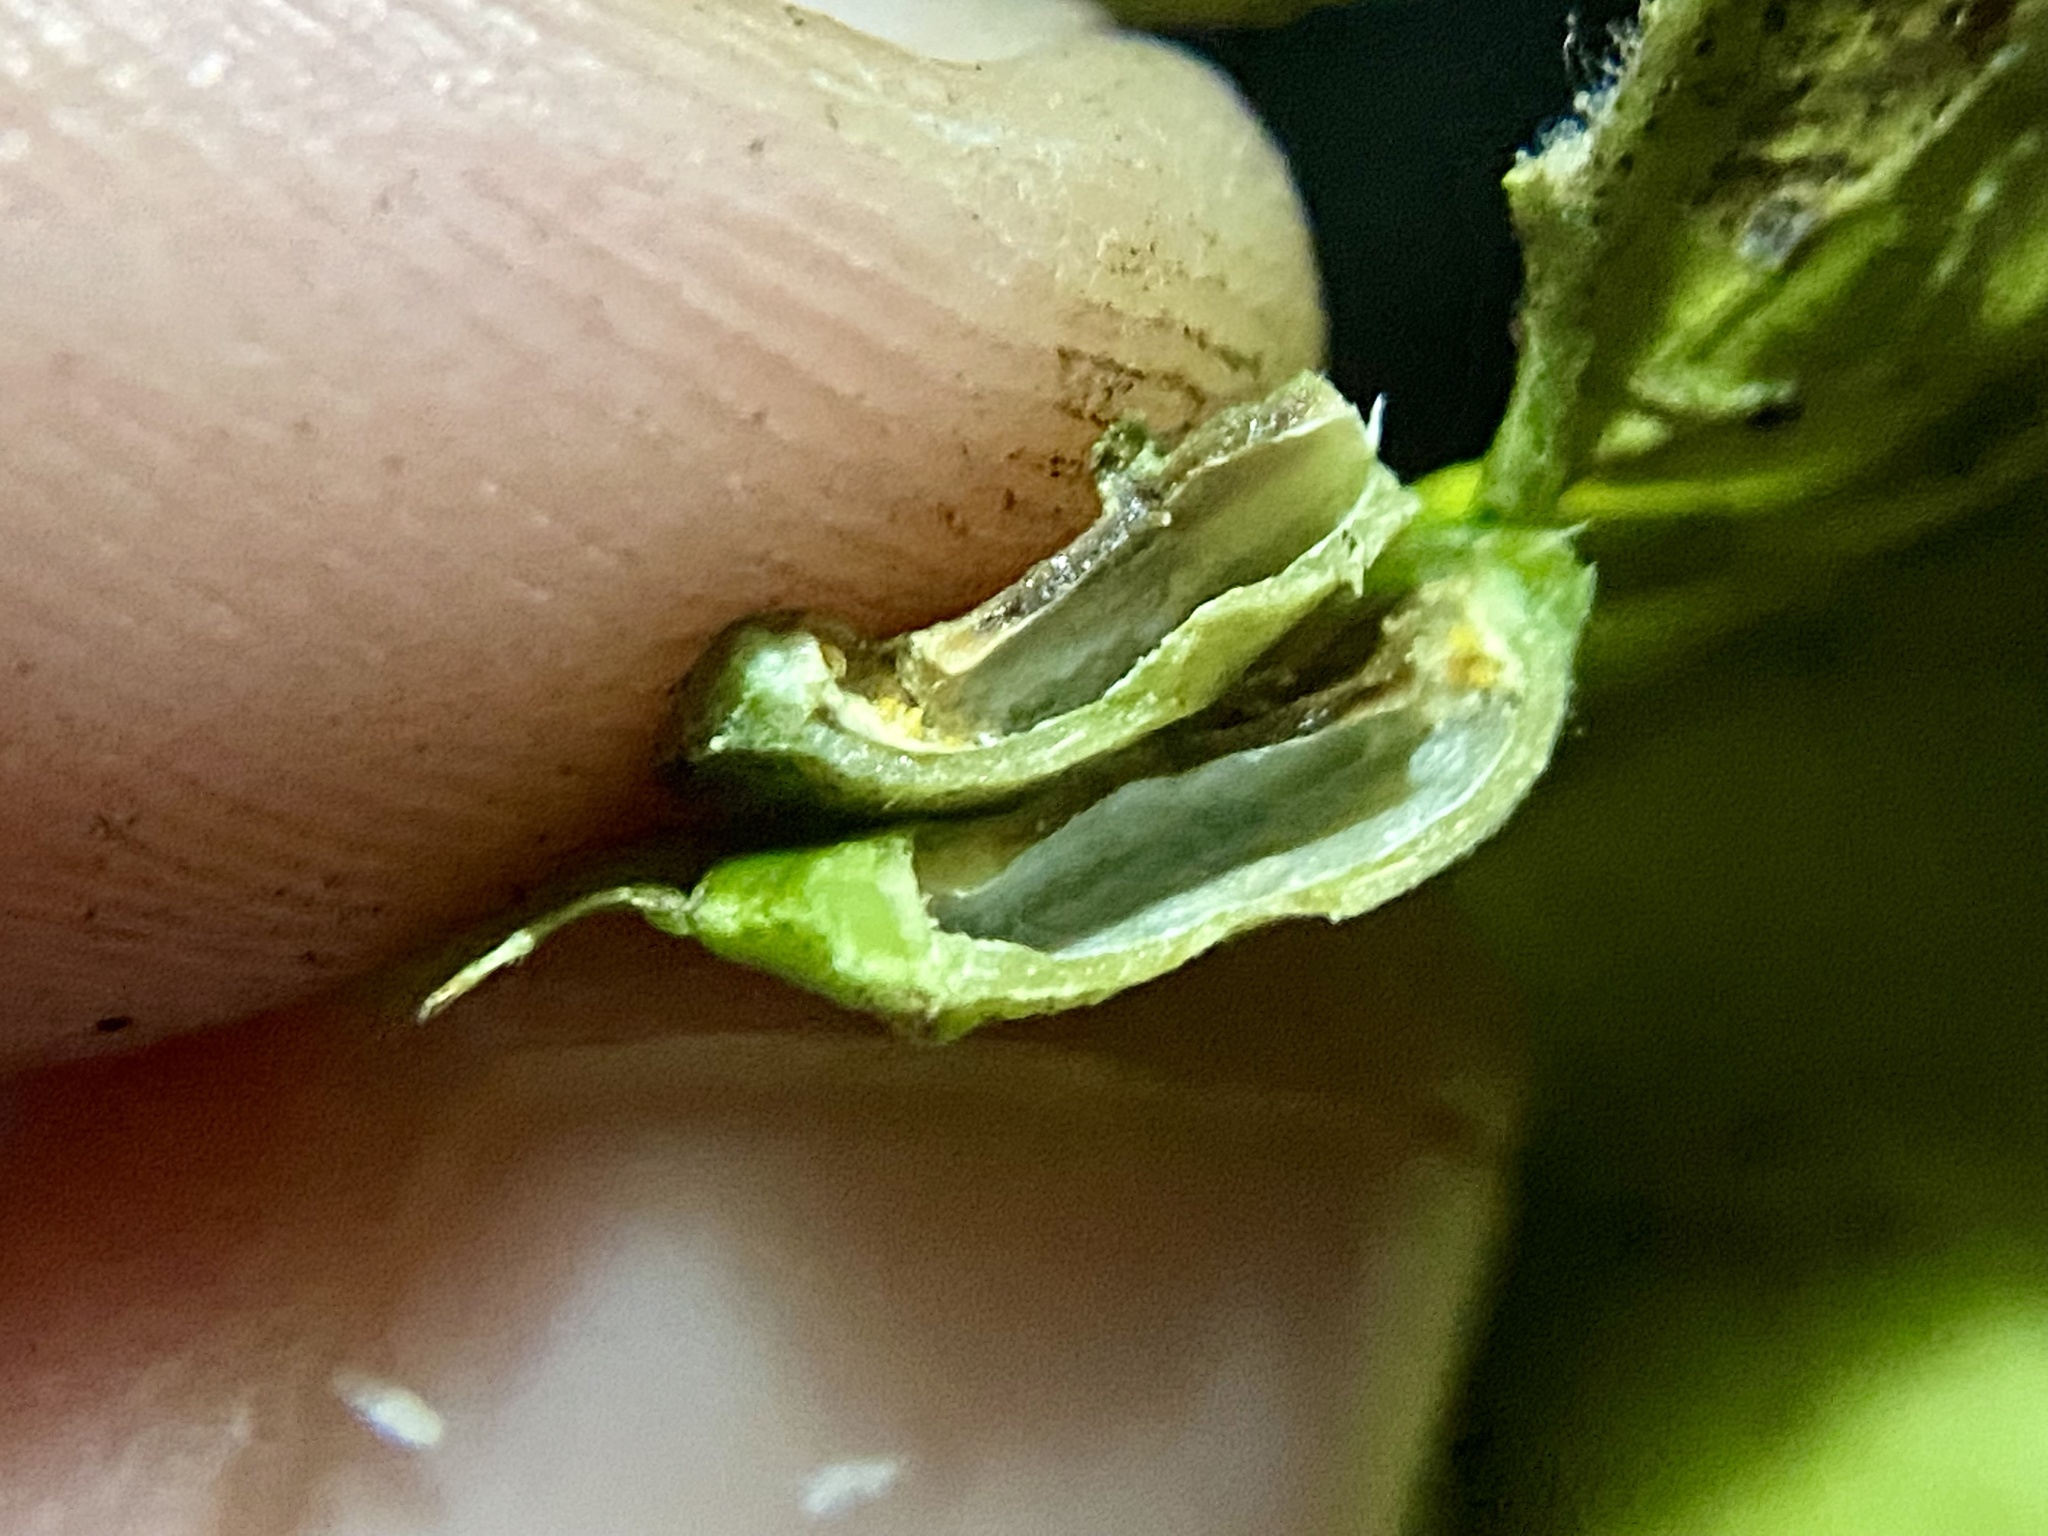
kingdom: Animalia
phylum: Arthropoda
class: Insecta
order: Hemiptera
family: Aphalaridae
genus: Pachypsylla
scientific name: Pachypsylla celtidisumbilicus
